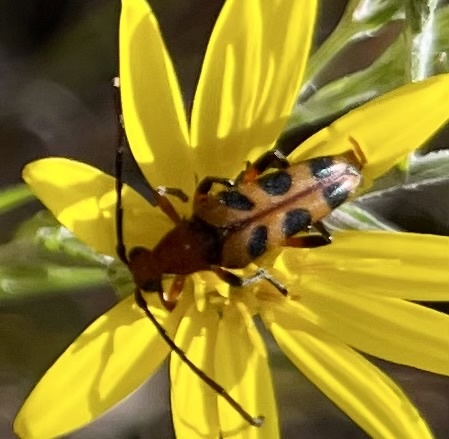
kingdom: Animalia
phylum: Arthropoda
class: Insecta
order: Coleoptera
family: Cerambycidae
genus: Strangalia
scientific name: Strangalia sexnotata
